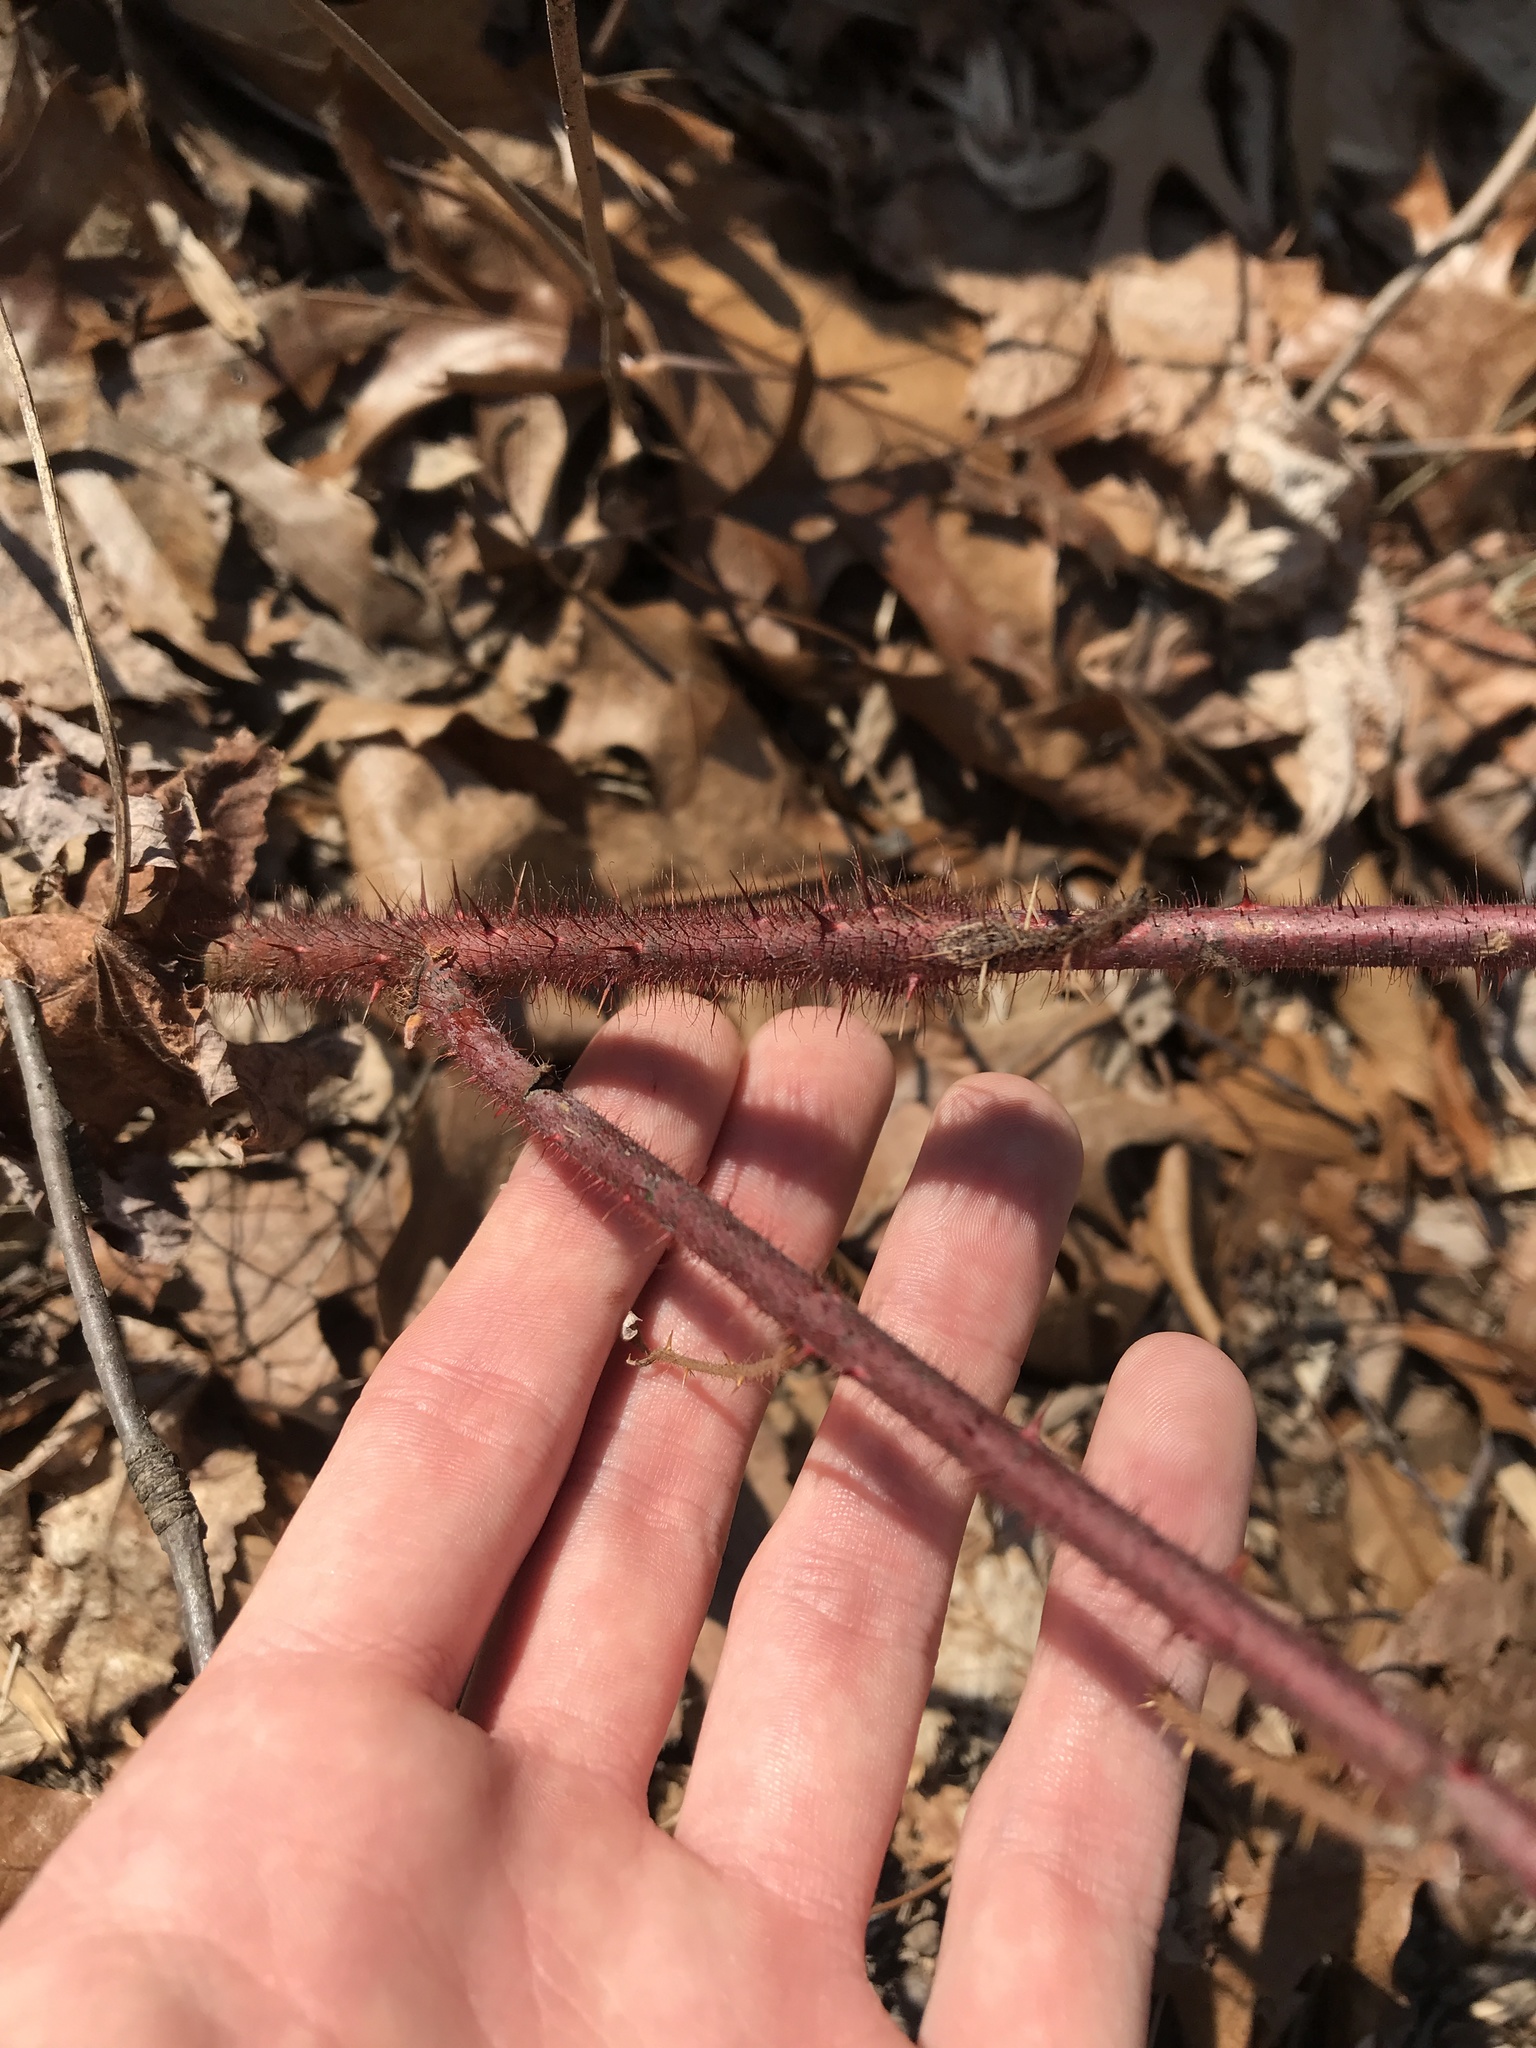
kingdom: Plantae
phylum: Tracheophyta
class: Magnoliopsida
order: Rosales
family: Rosaceae
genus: Rubus
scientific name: Rubus phoenicolasius
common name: Japanese wineberry
